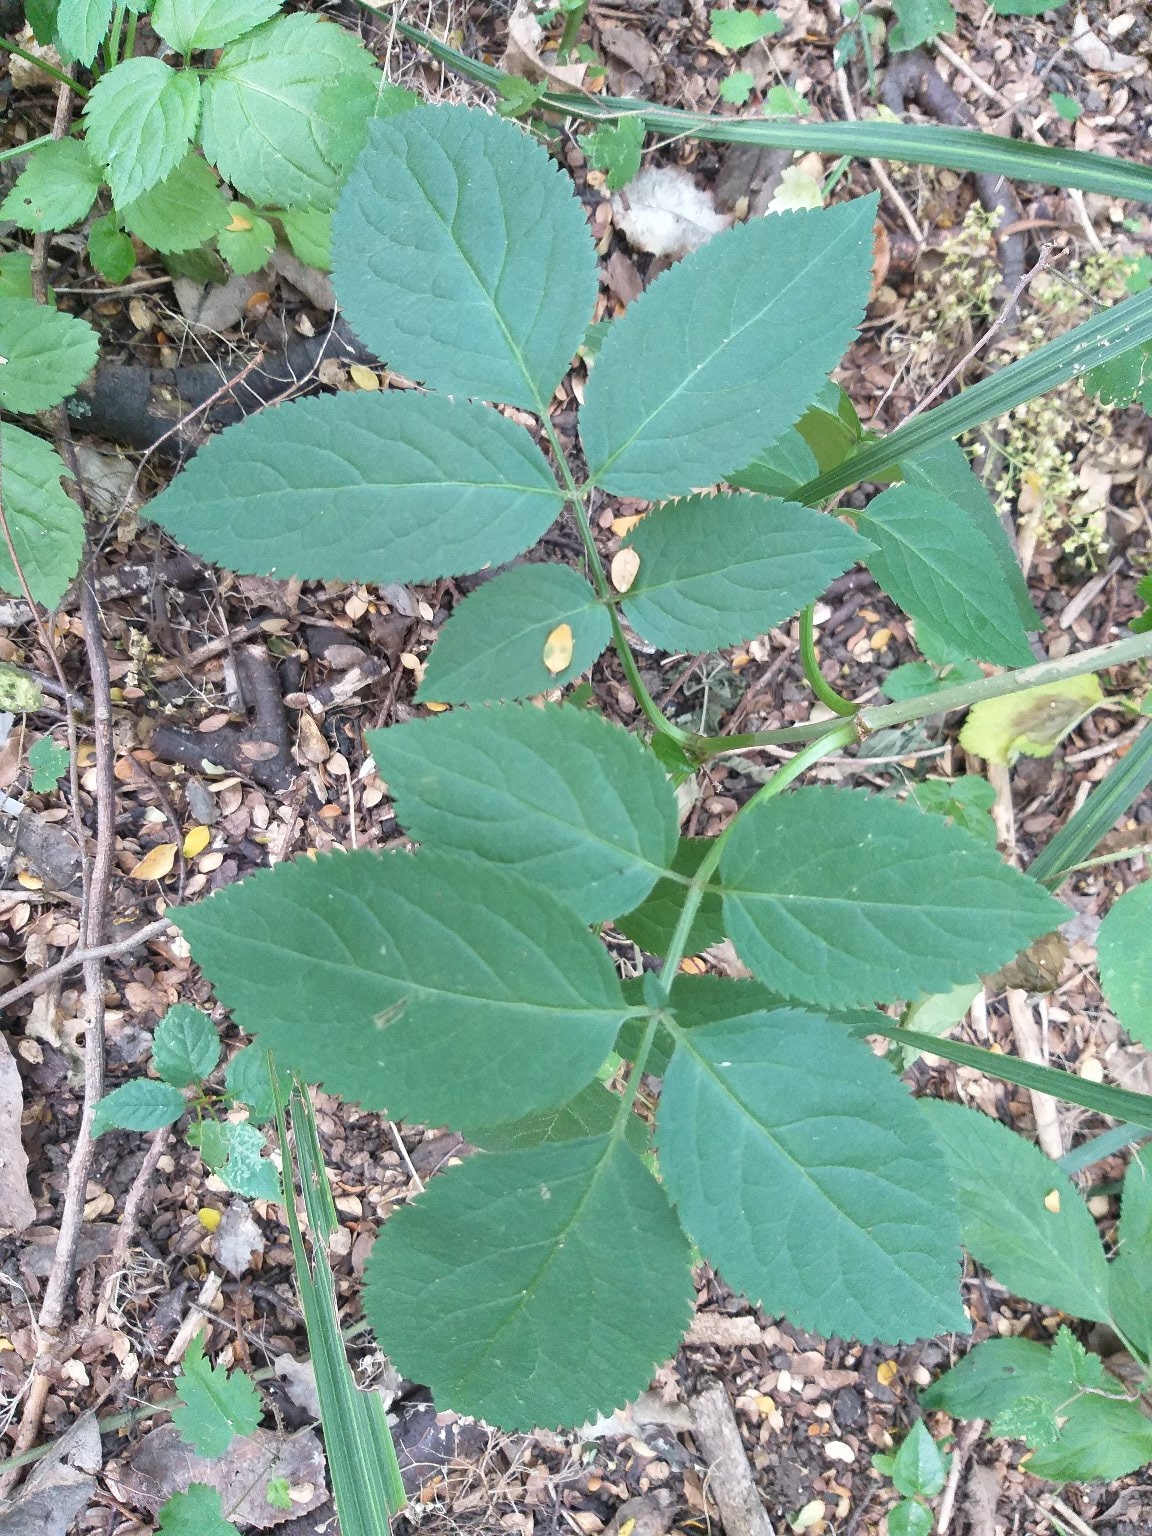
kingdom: Plantae
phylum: Tracheophyta
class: Magnoliopsida
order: Dipsacales
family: Viburnaceae
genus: Sambucus
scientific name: Sambucus nigra
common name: Elder
